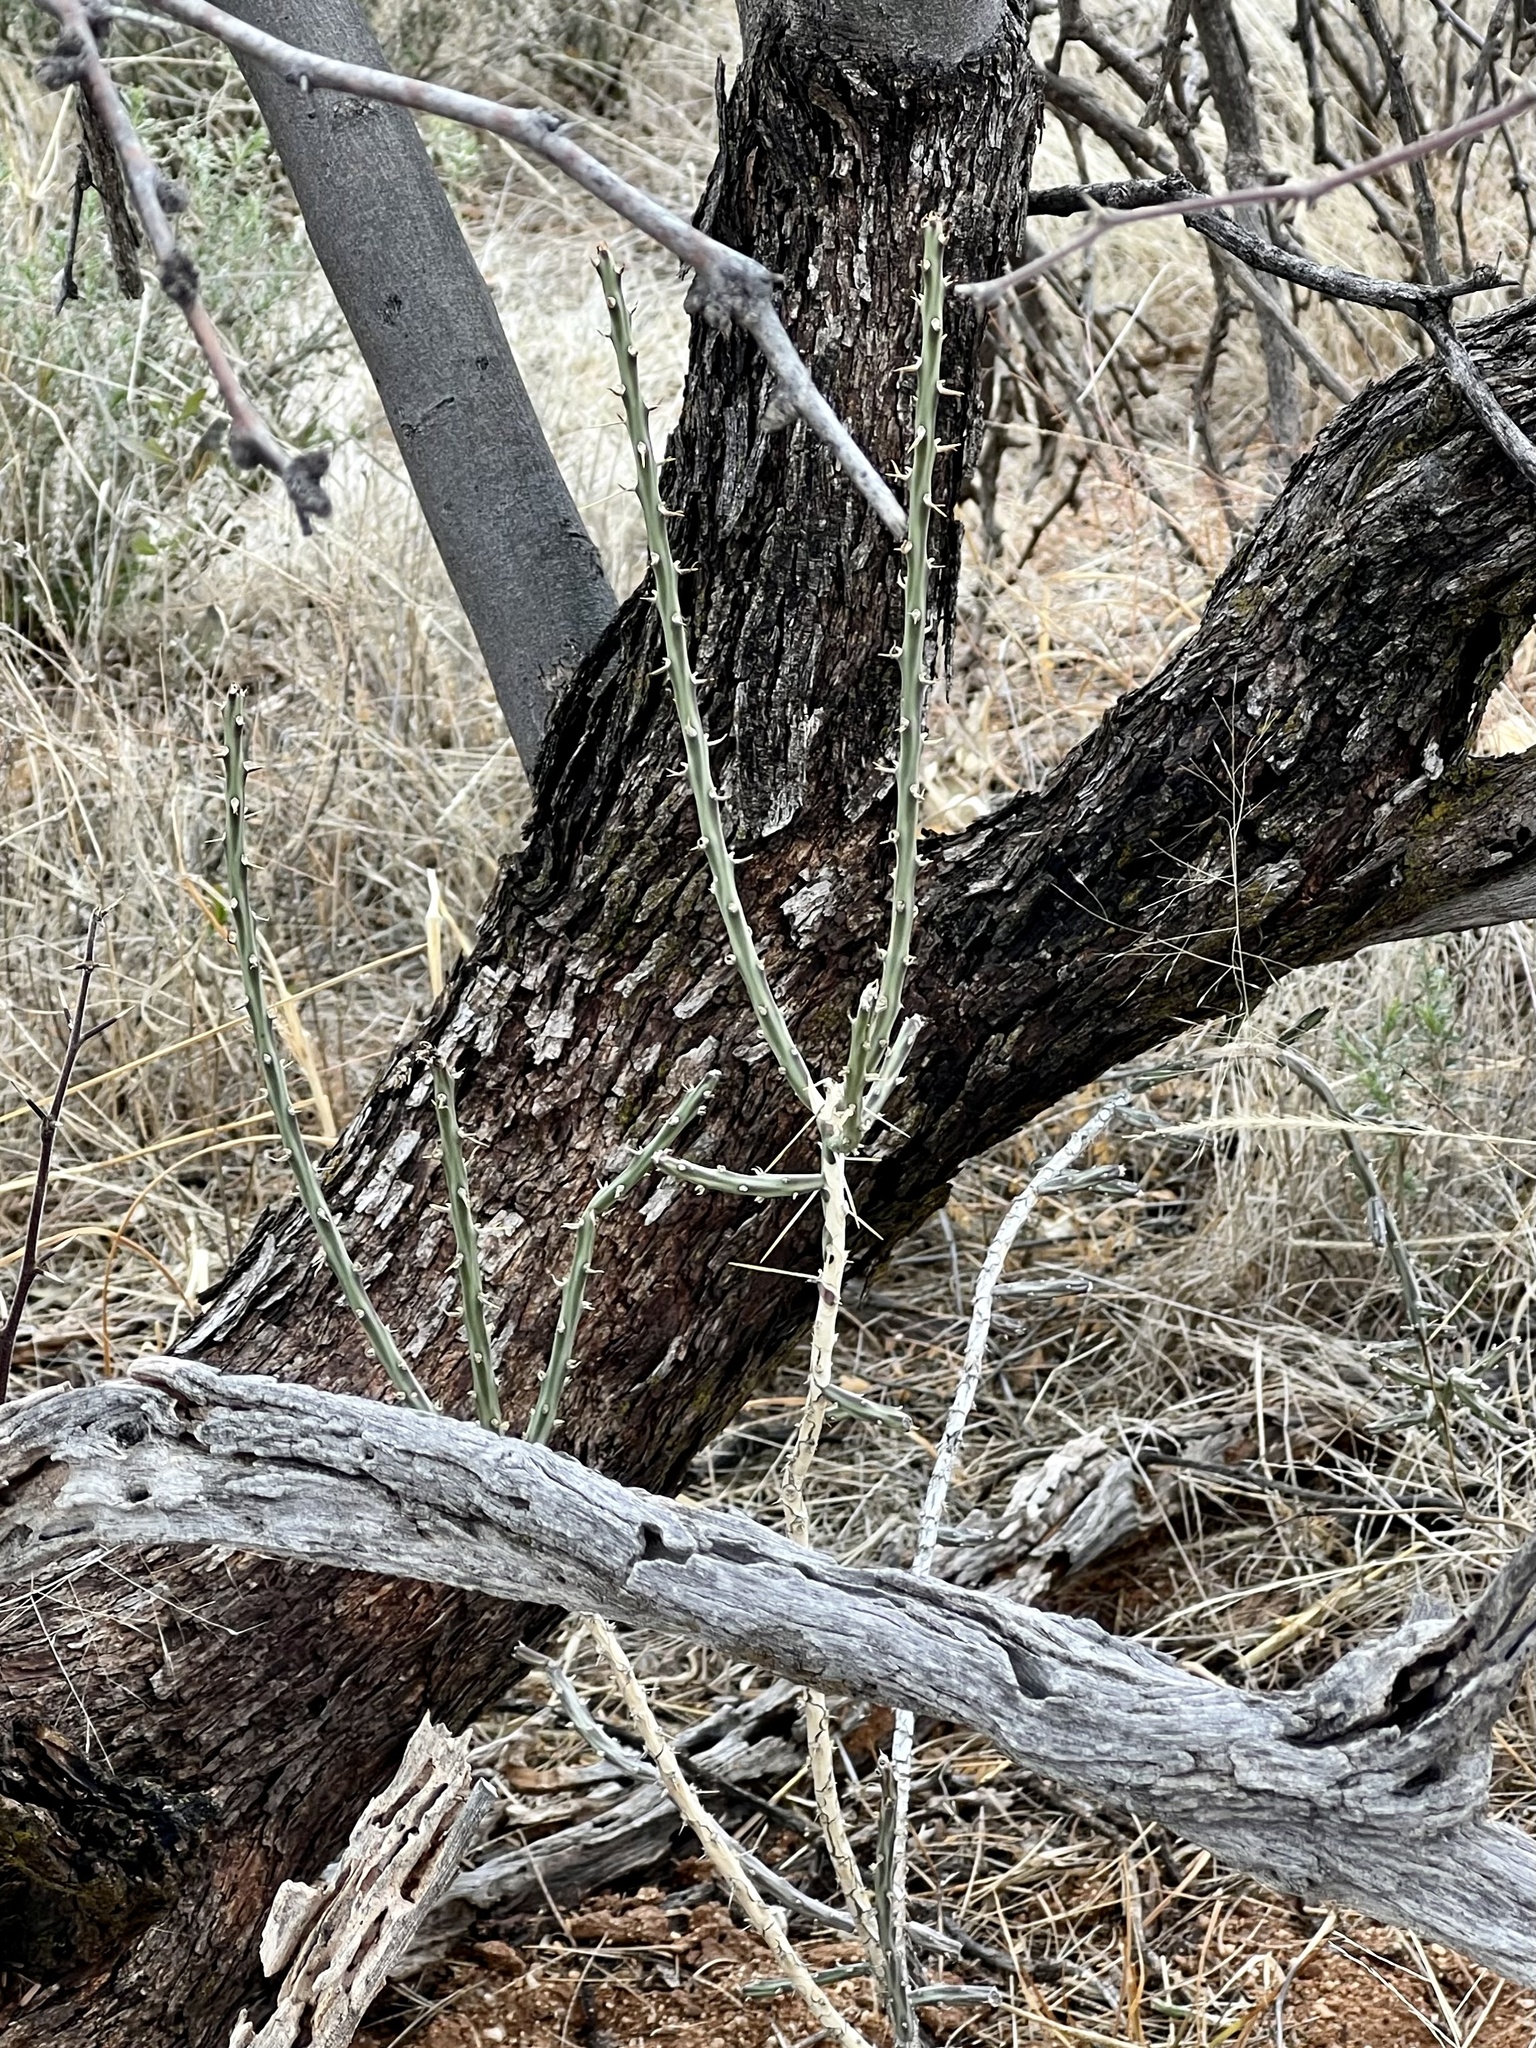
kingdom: Plantae
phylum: Tracheophyta
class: Magnoliopsida
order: Caryophyllales
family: Cactaceae
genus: Cylindropuntia
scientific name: Cylindropuntia leptocaulis
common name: Christmas cactus
